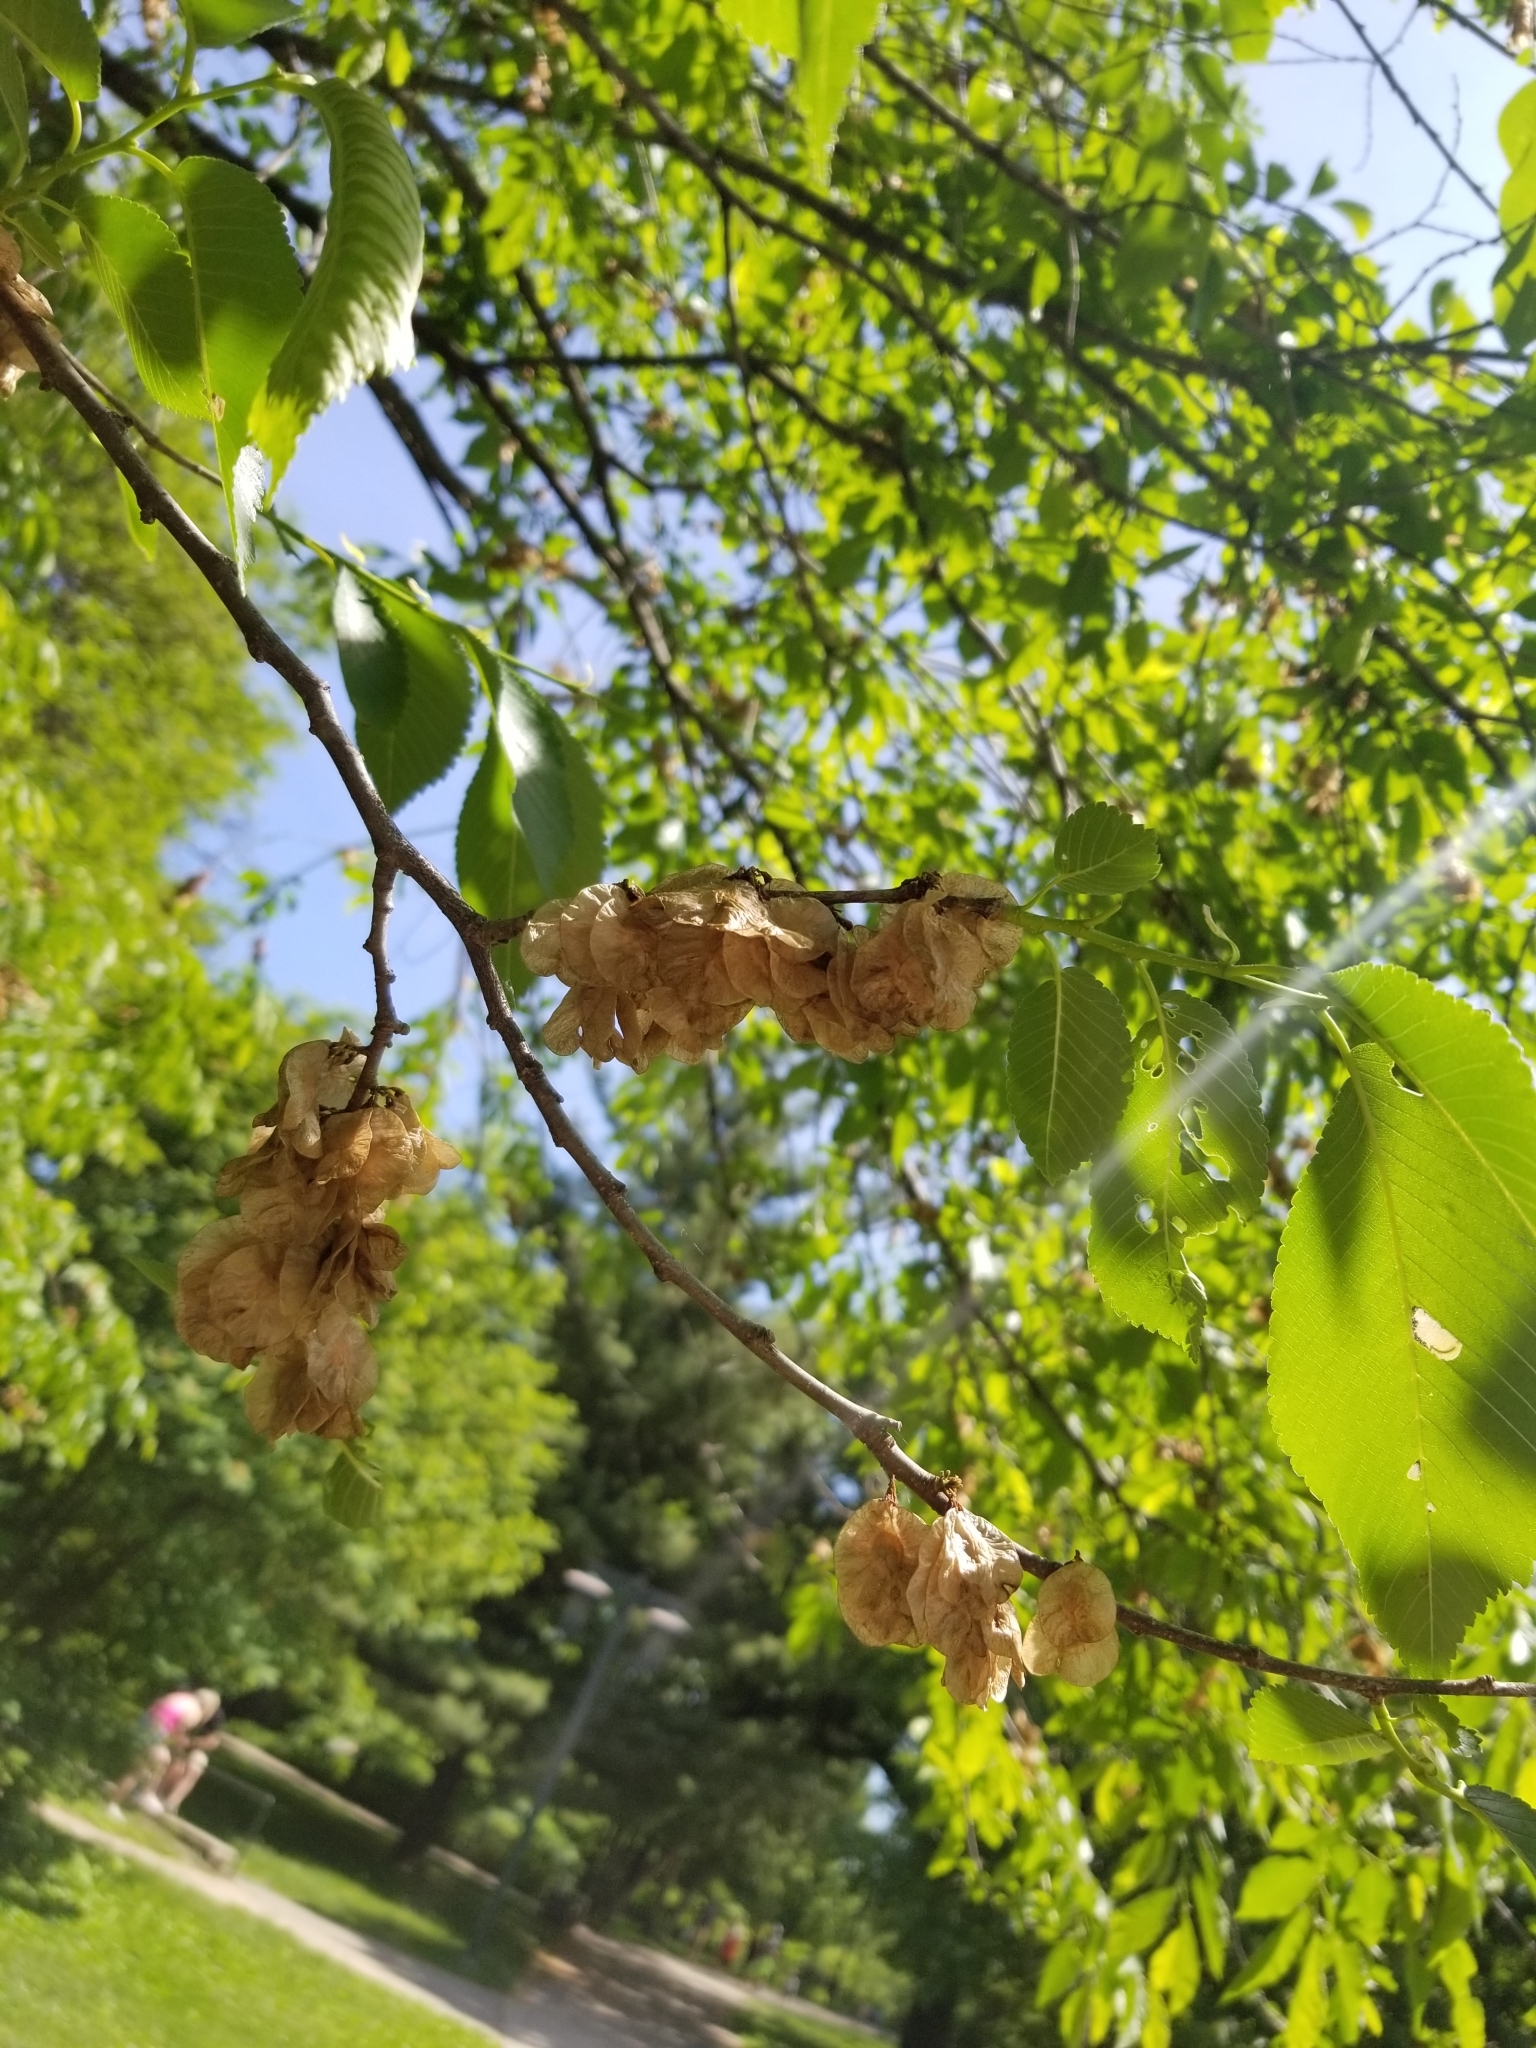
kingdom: Plantae
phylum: Tracheophyta
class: Magnoliopsida
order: Rosales
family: Ulmaceae
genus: Ulmus
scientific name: Ulmus rubra
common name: Slippery elm
